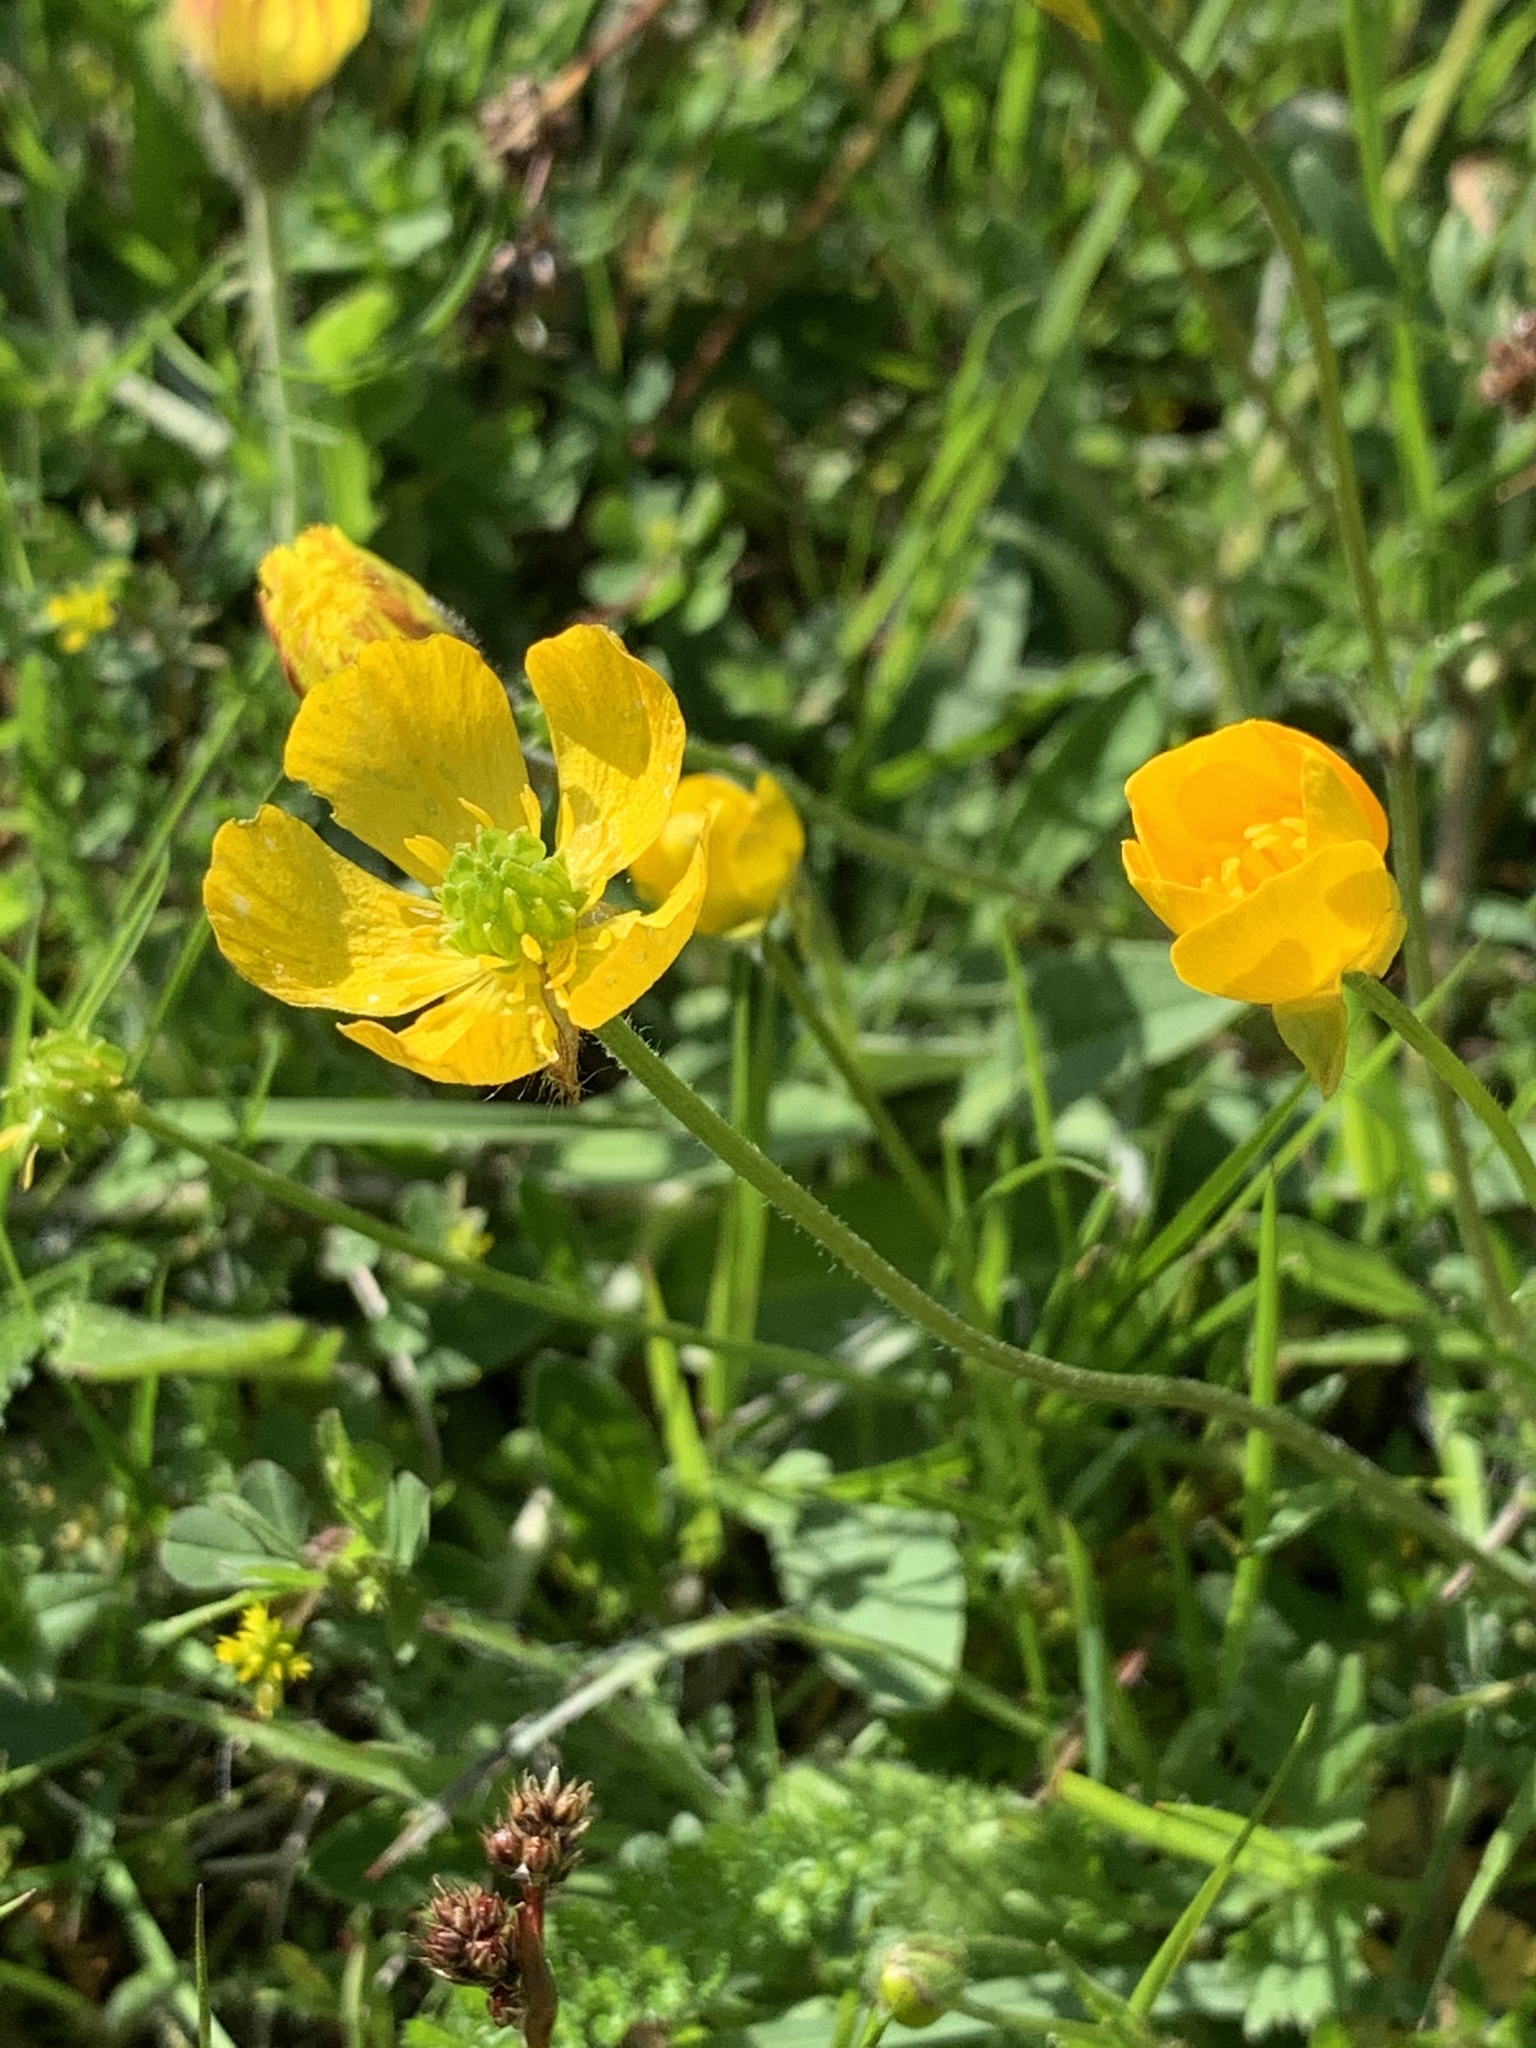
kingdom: Plantae
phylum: Tracheophyta
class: Magnoliopsida
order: Ranunculales
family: Ranunculaceae
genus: Ranunculus
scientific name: Ranunculus bulbosus
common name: Bulbous buttercup
